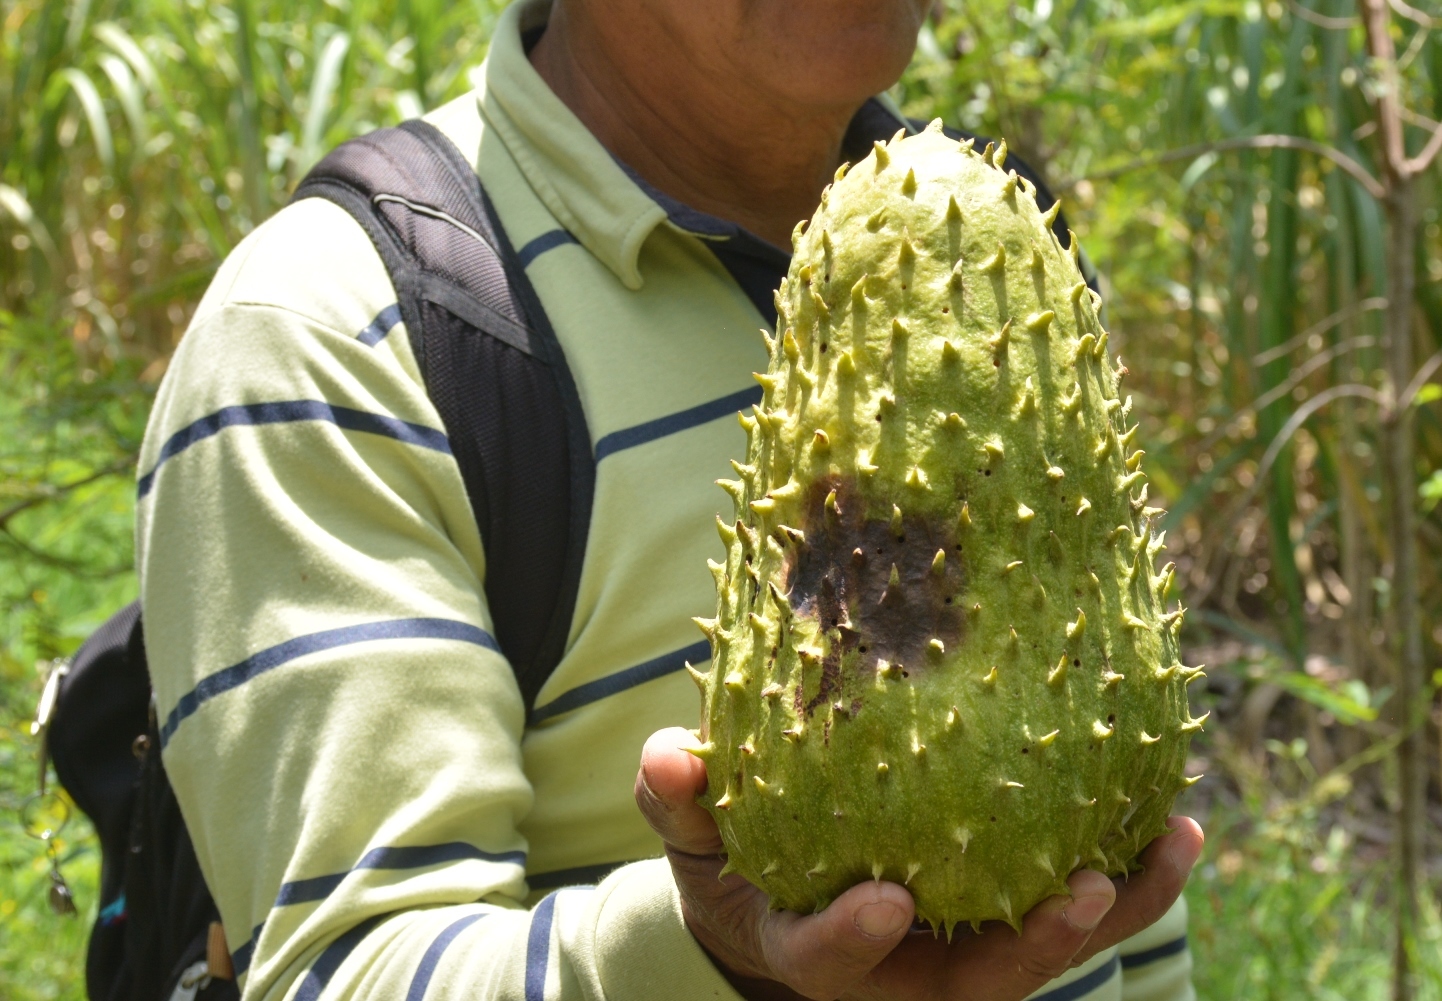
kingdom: Plantae
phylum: Tracheophyta
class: Magnoliopsida
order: Magnoliales
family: Annonaceae
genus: Annona
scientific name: Annona muricata
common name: Soursop
